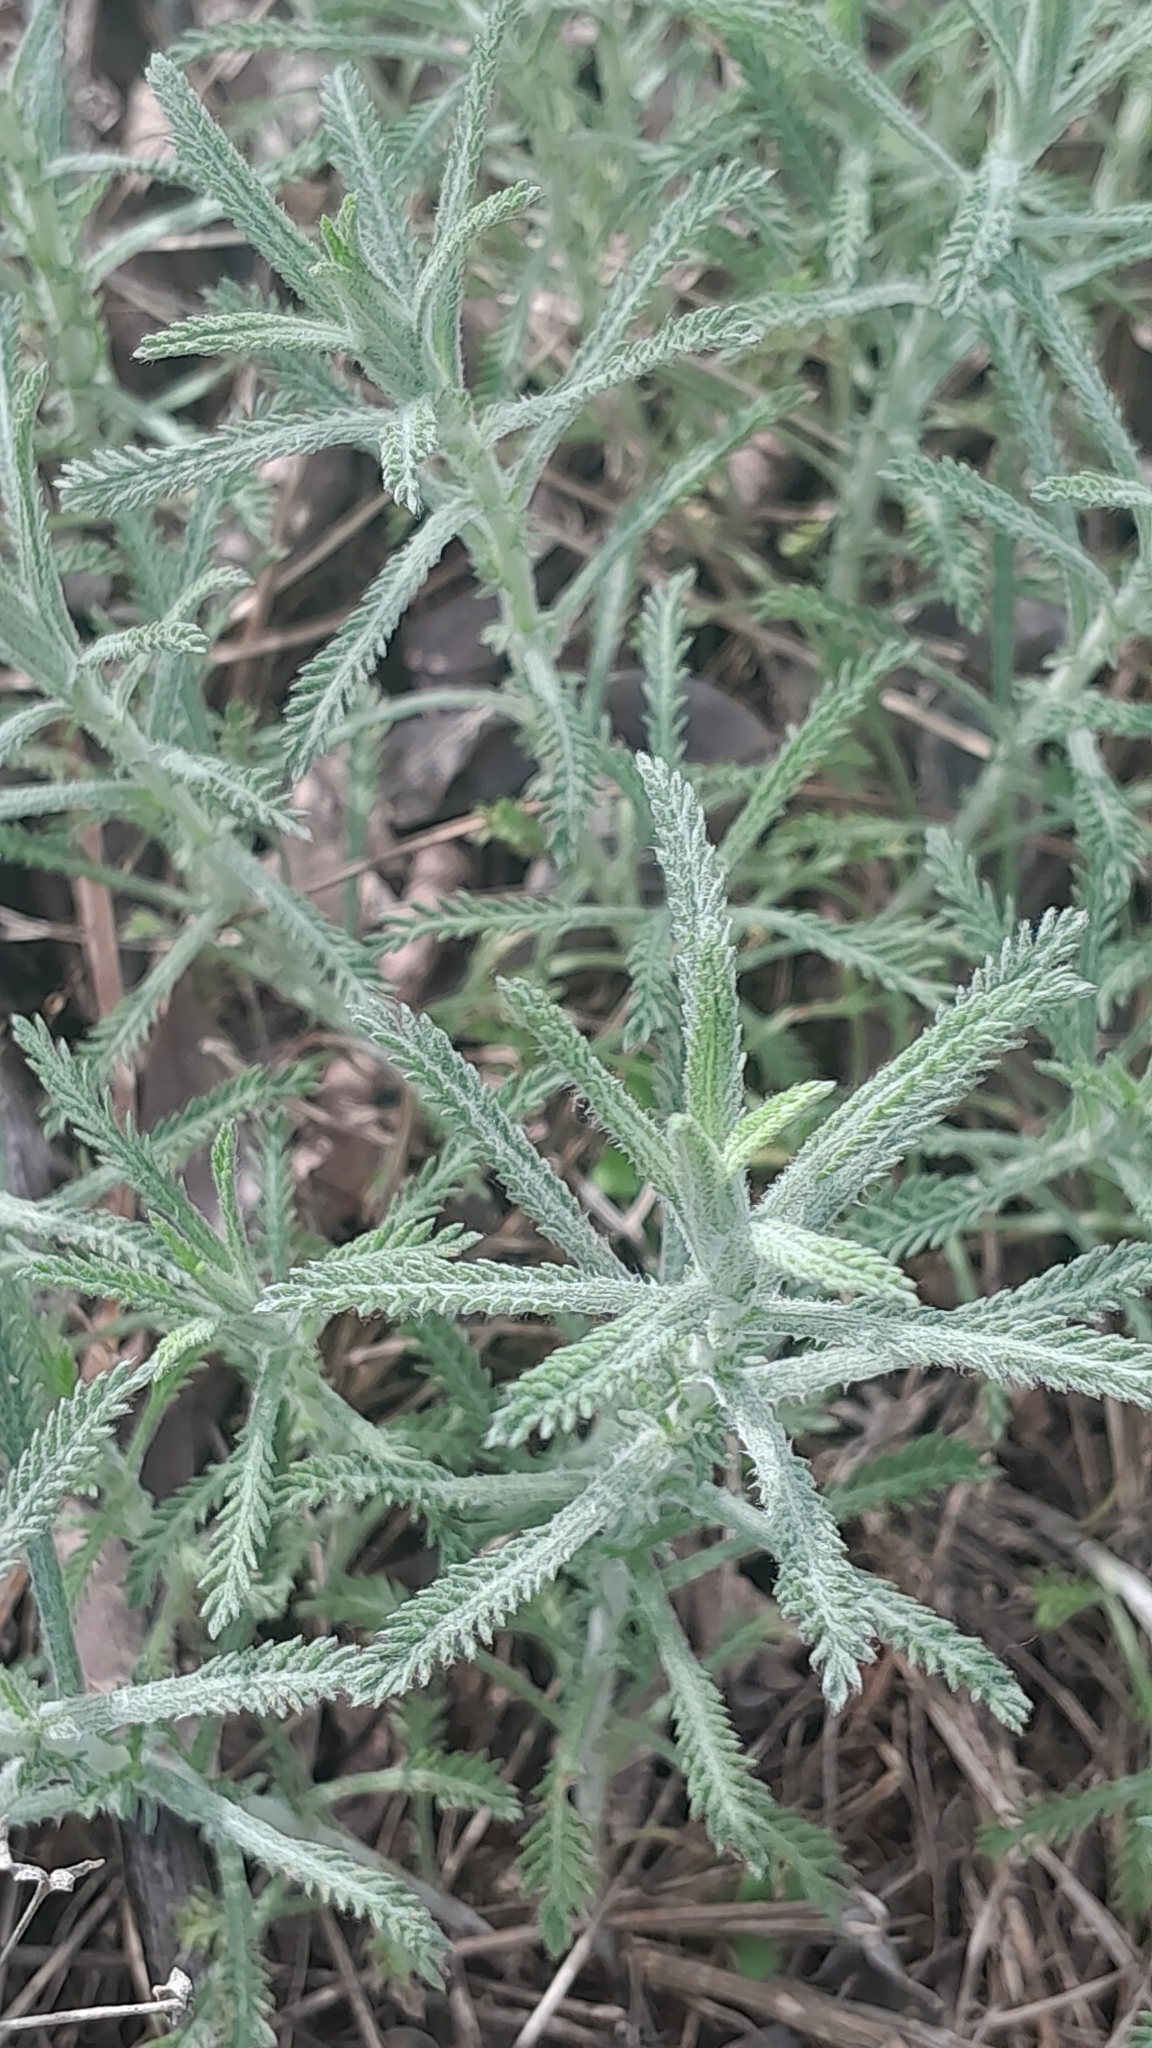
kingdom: Plantae
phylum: Tracheophyta
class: Magnoliopsida
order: Asterales
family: Asteraceae
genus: Achillea
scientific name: Achillea ochroleuca
